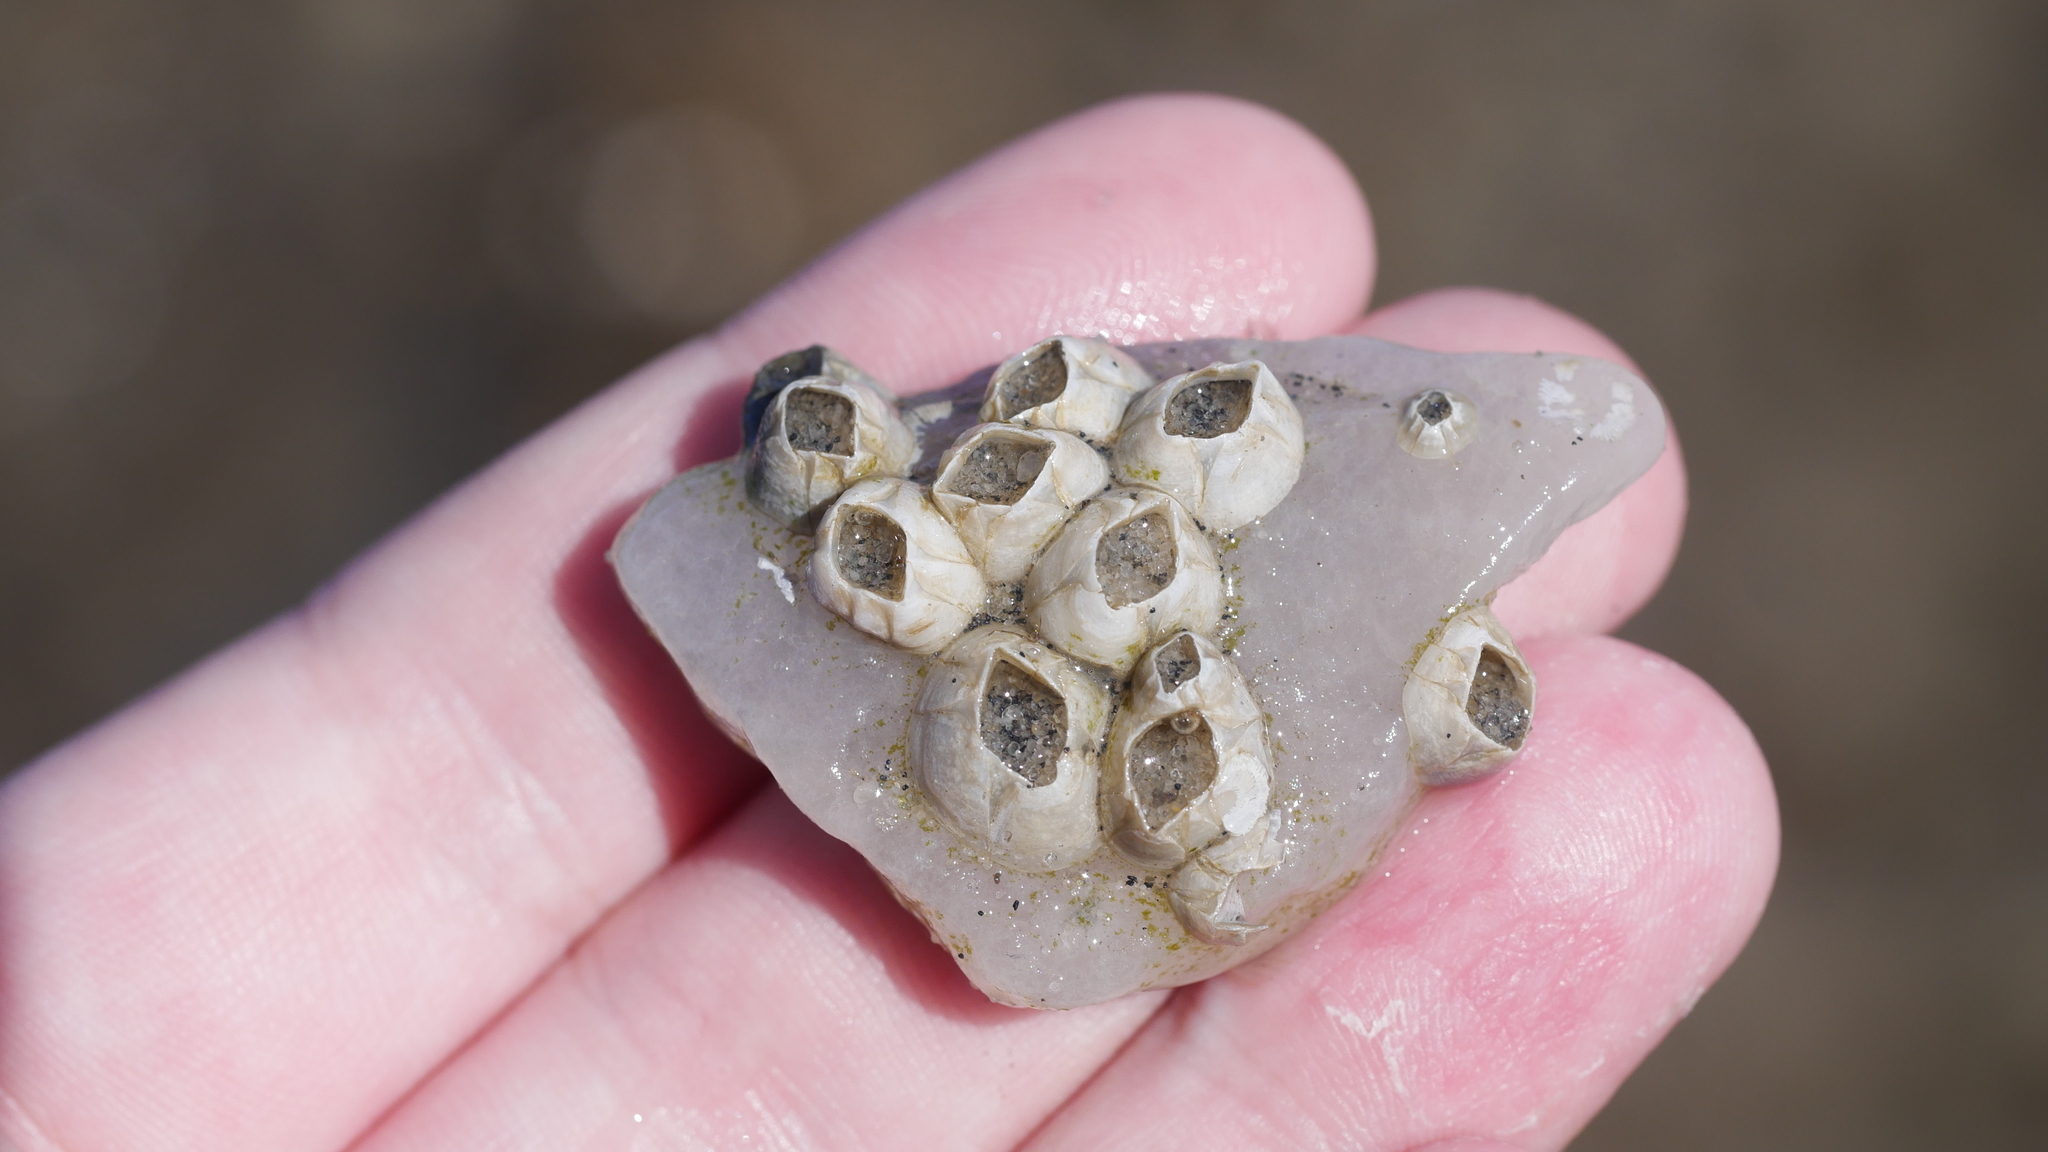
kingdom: Animalia
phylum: Arthropoda
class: Maxillopoda
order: Sessilia
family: Balanidae
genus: Amphibalanus
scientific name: Amphibalanus improvisus
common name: Bay barnacle
